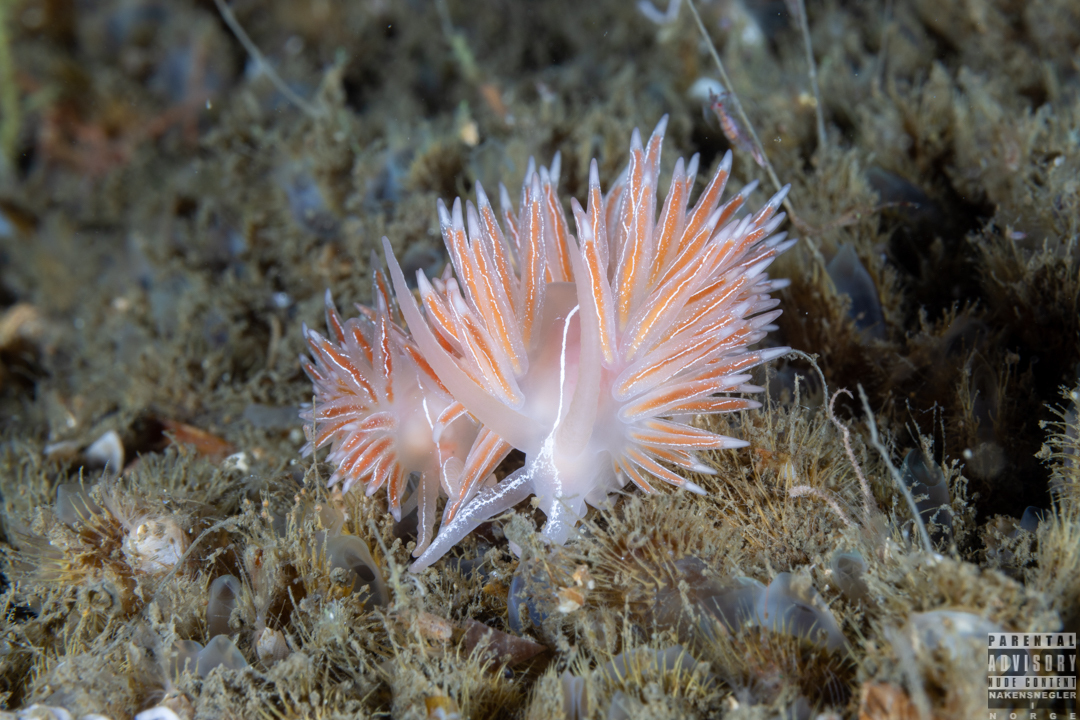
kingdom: Animalia
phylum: Mollusca
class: Gastropoda
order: Nudibranchia
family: Coryphellidae
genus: Coryphella
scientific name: Coryphella chriskaugei
